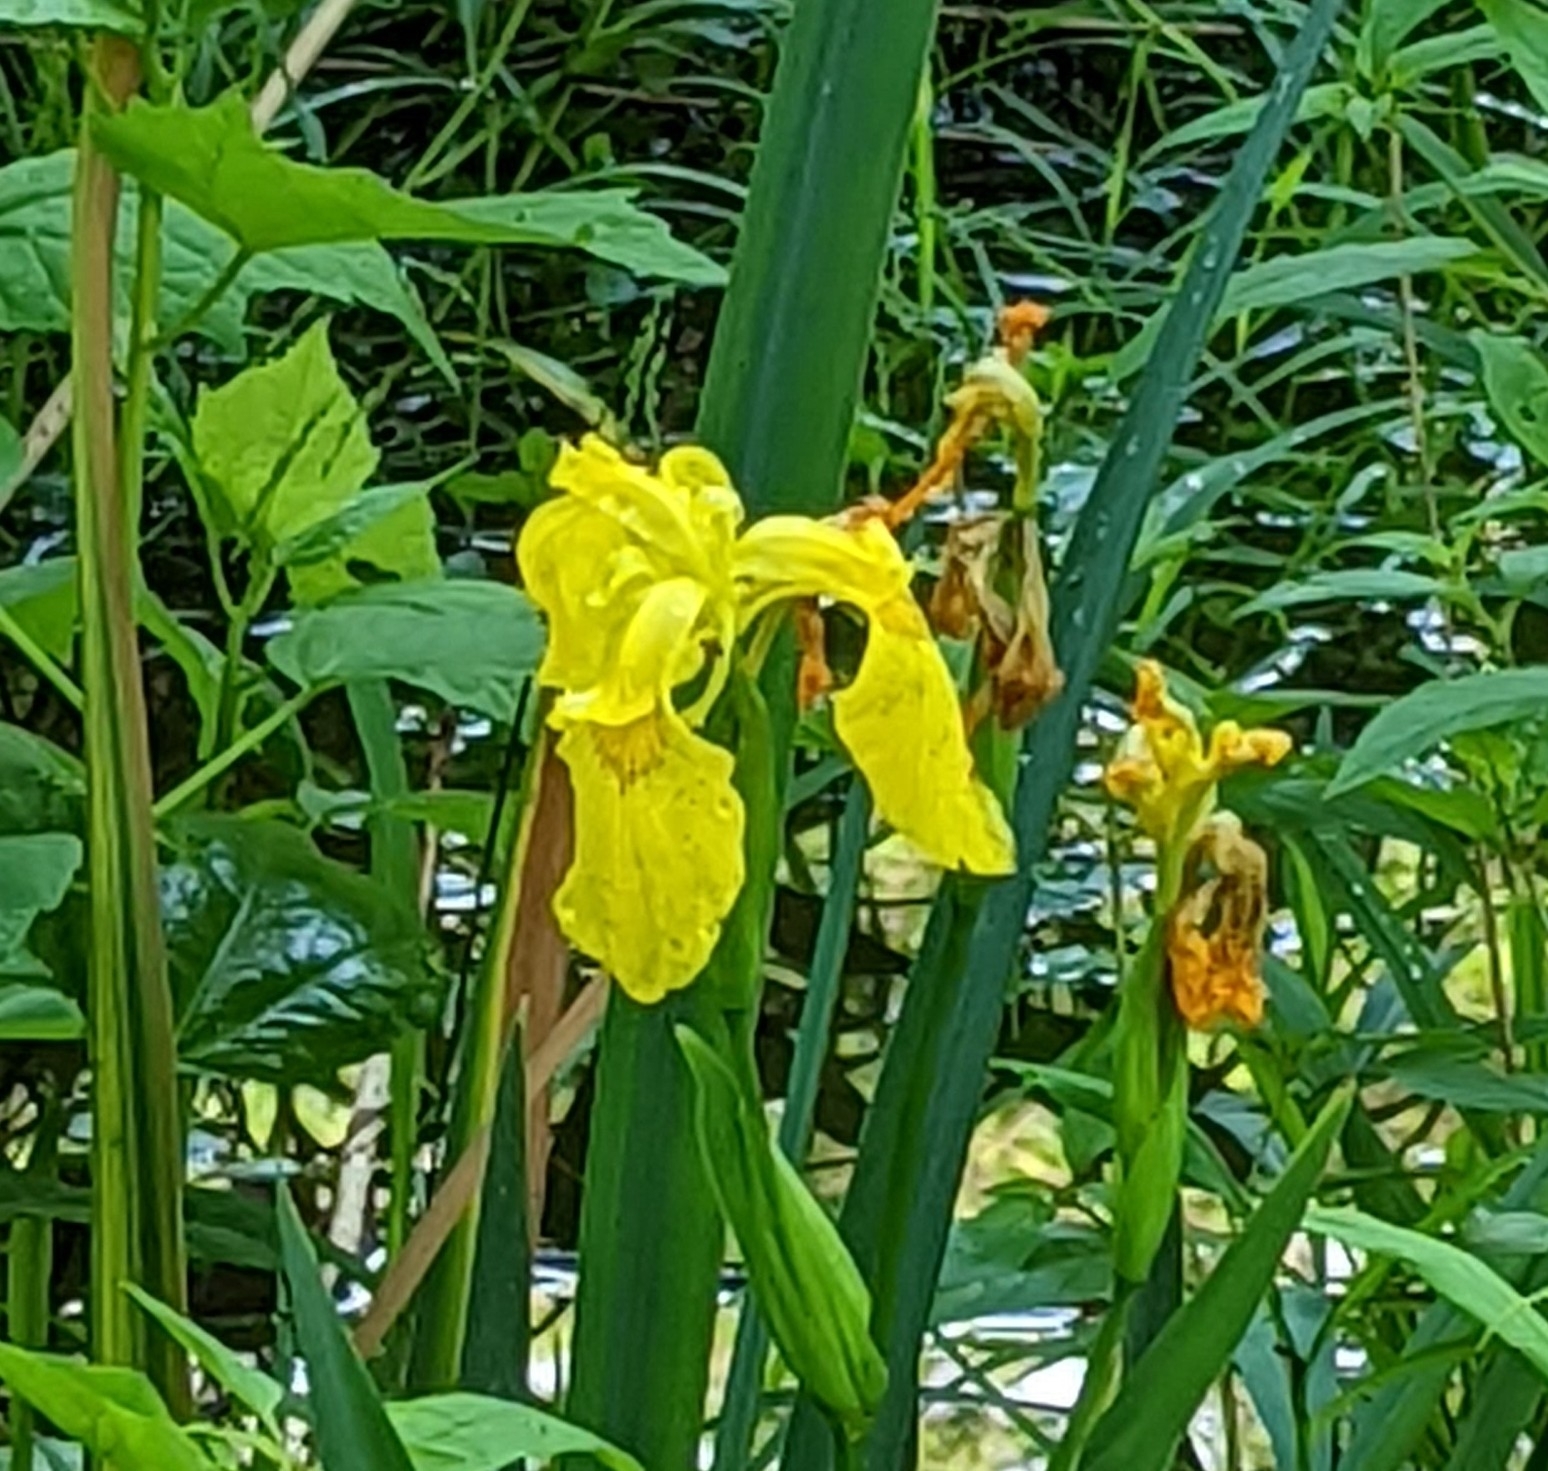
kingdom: Plantae
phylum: Tracheophyta
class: Liliopsida
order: Asparagales
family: Iridaceae
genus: Iris
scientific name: Iris pseudacorus
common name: Yellow flag
